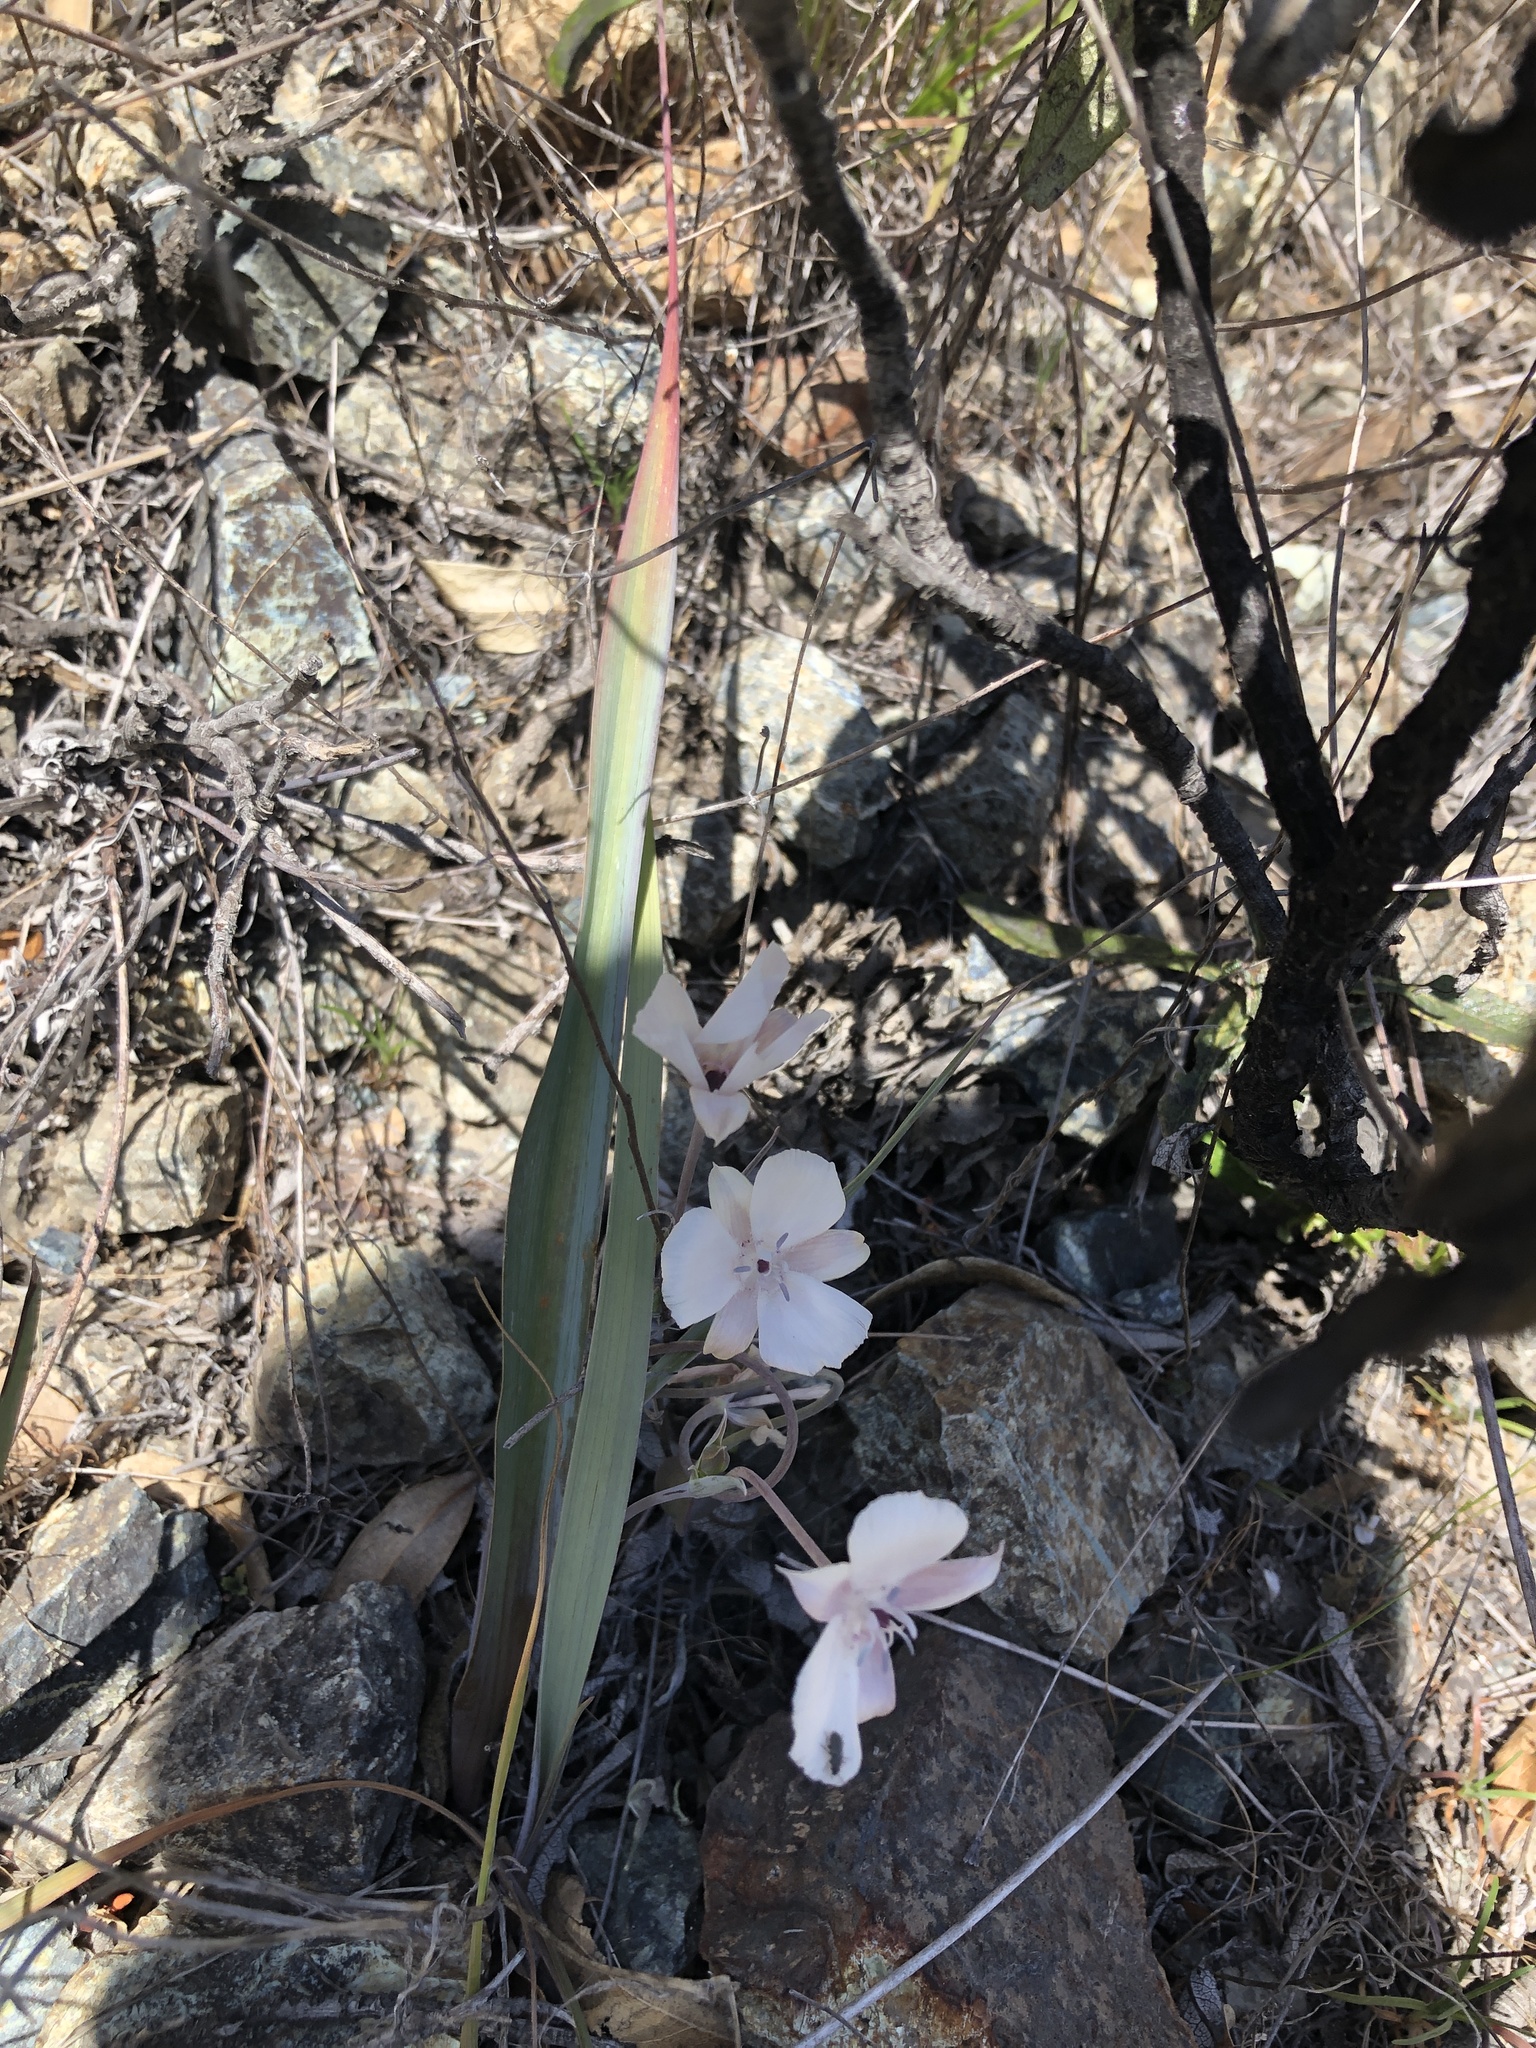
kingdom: Plantae
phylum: Tracheophyta
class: Liliopsida
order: Liliales
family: Liliaceae
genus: Calochortus
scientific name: Calochortus umbellatus
